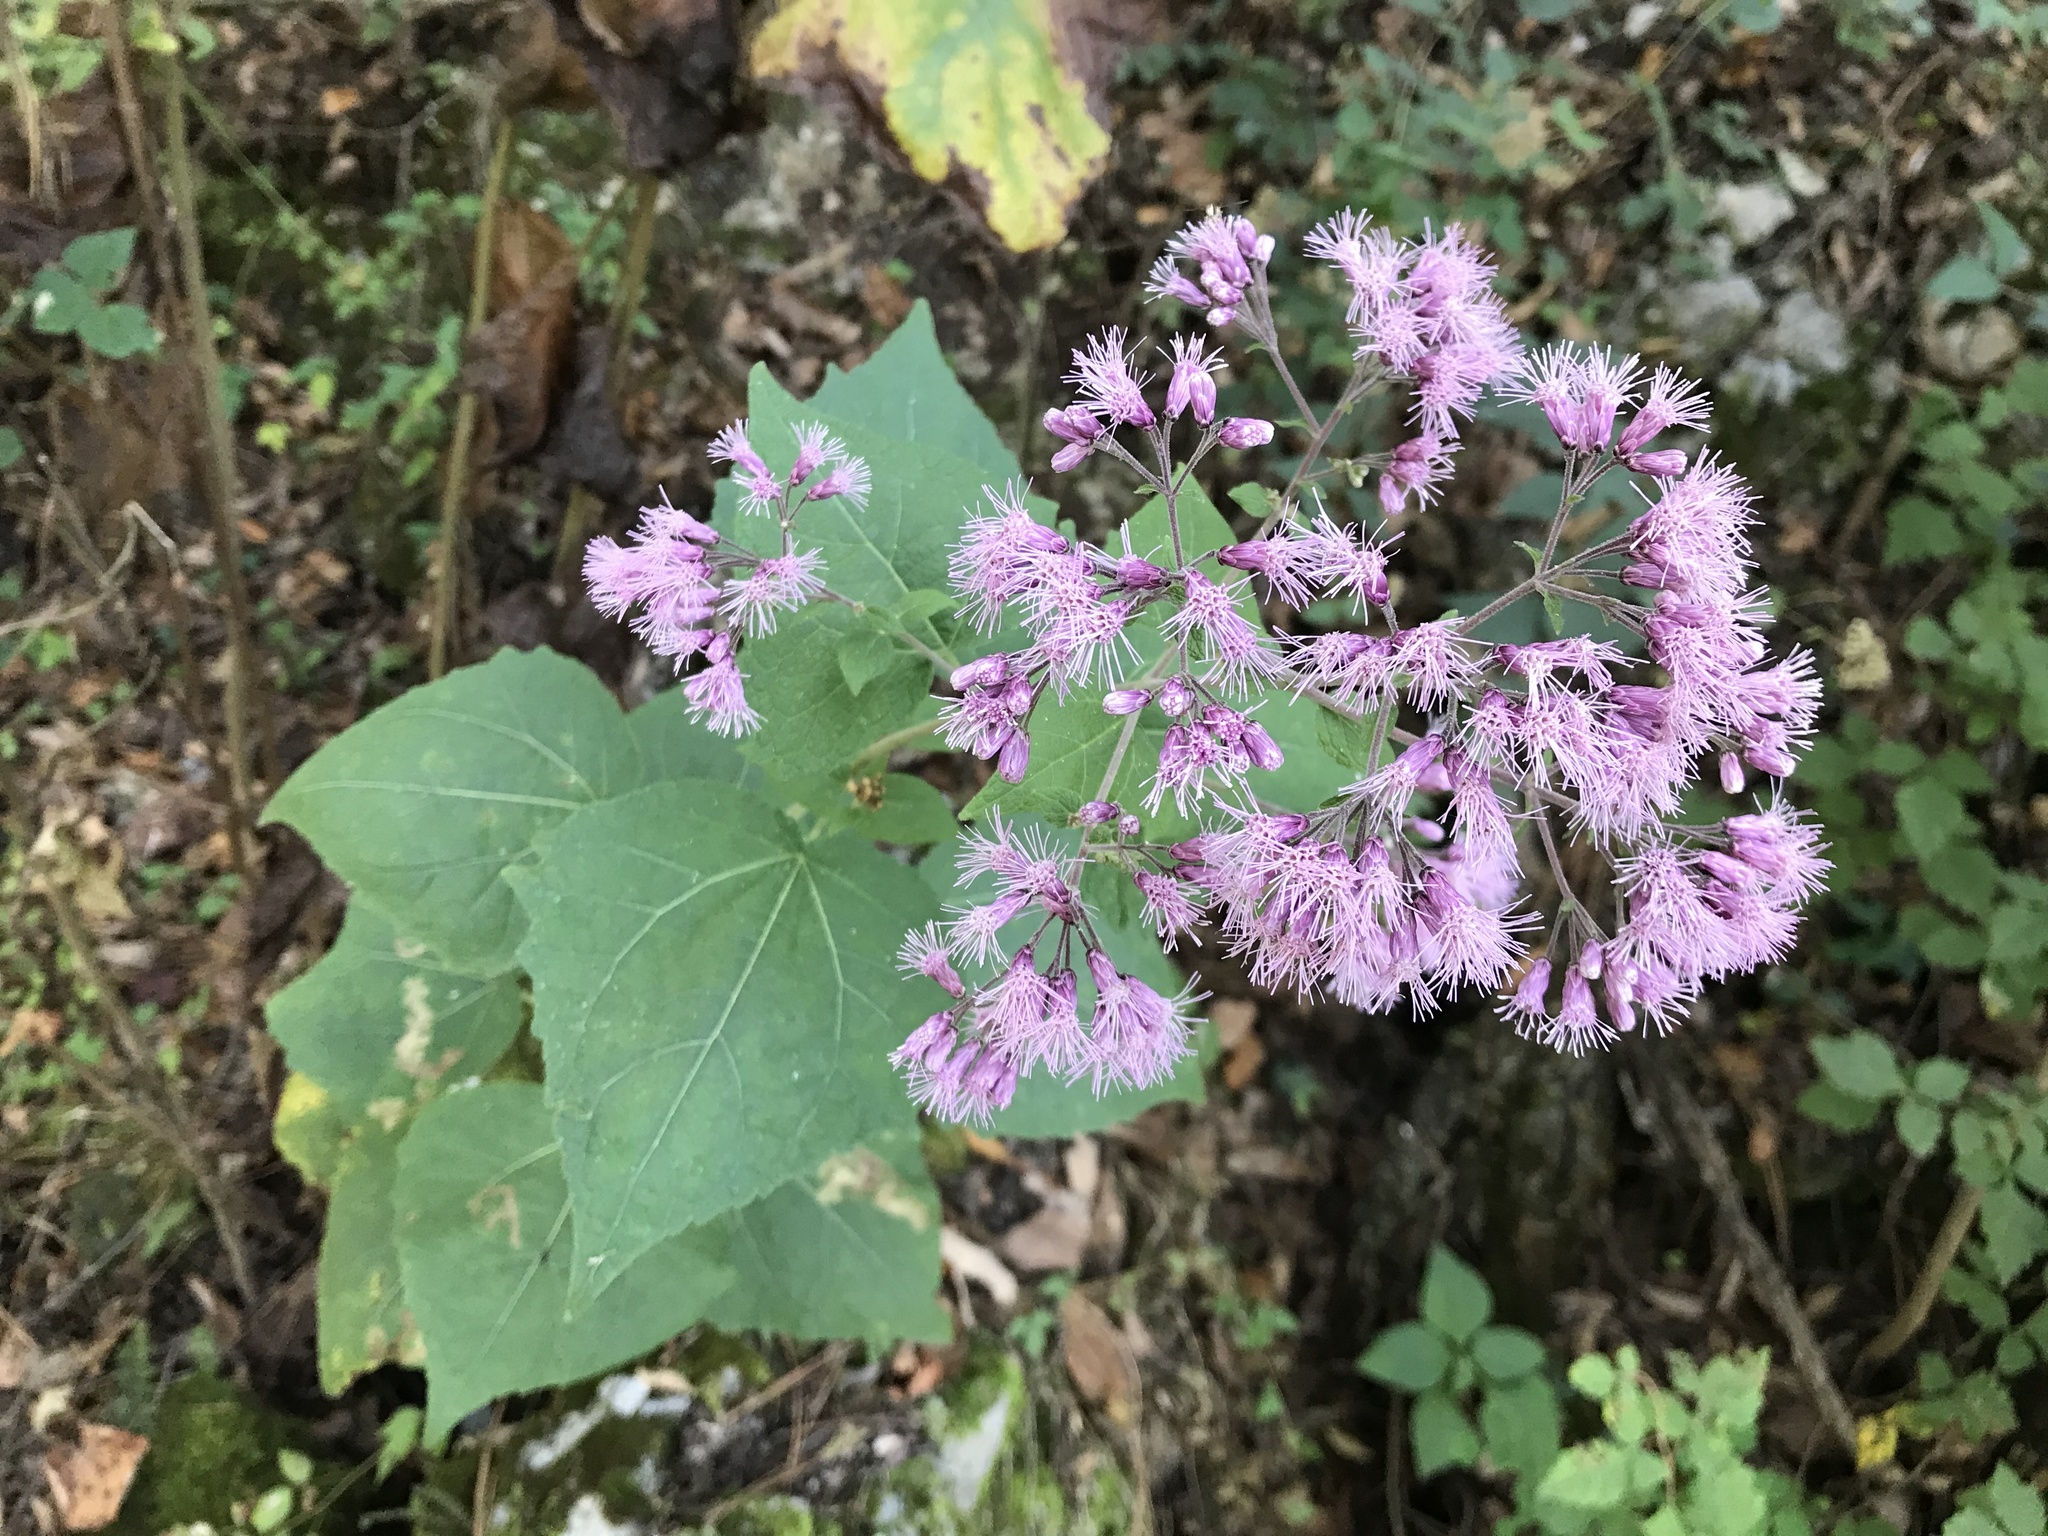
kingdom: Plantae
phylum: Tracheophyta
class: Magnoliopsida
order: Asterales
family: Asteraceae
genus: Peteravenia
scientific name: Peteravenia malvifolia
